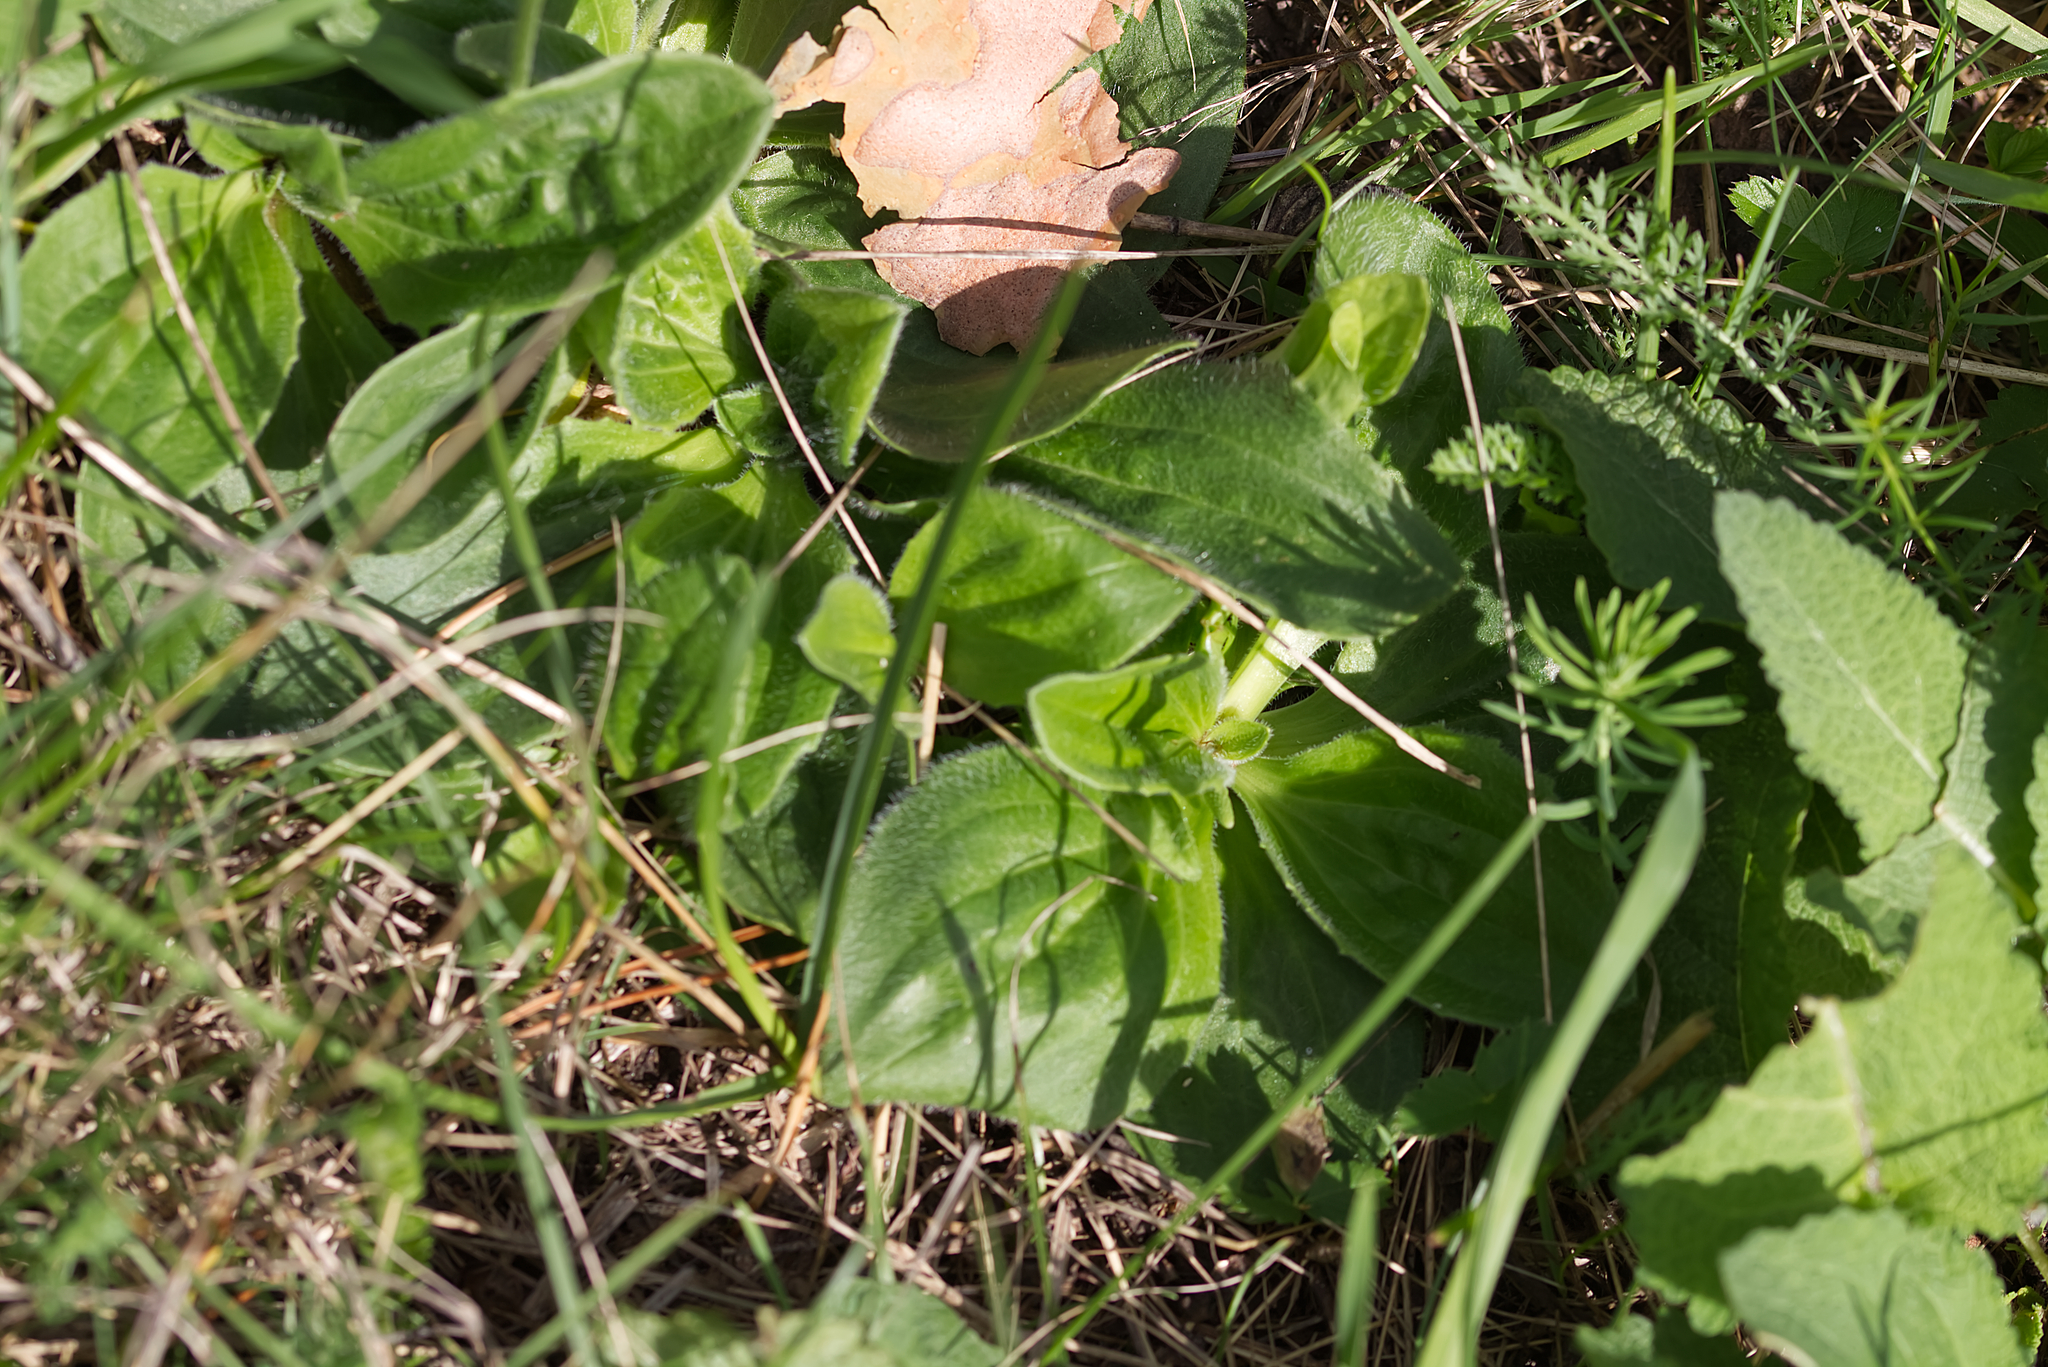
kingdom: Plantae
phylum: Tracheophyta
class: Magnoliopsida
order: Lamiales
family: Plantaginaceae
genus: Plantago
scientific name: Plantago media
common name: Hoary plantain
